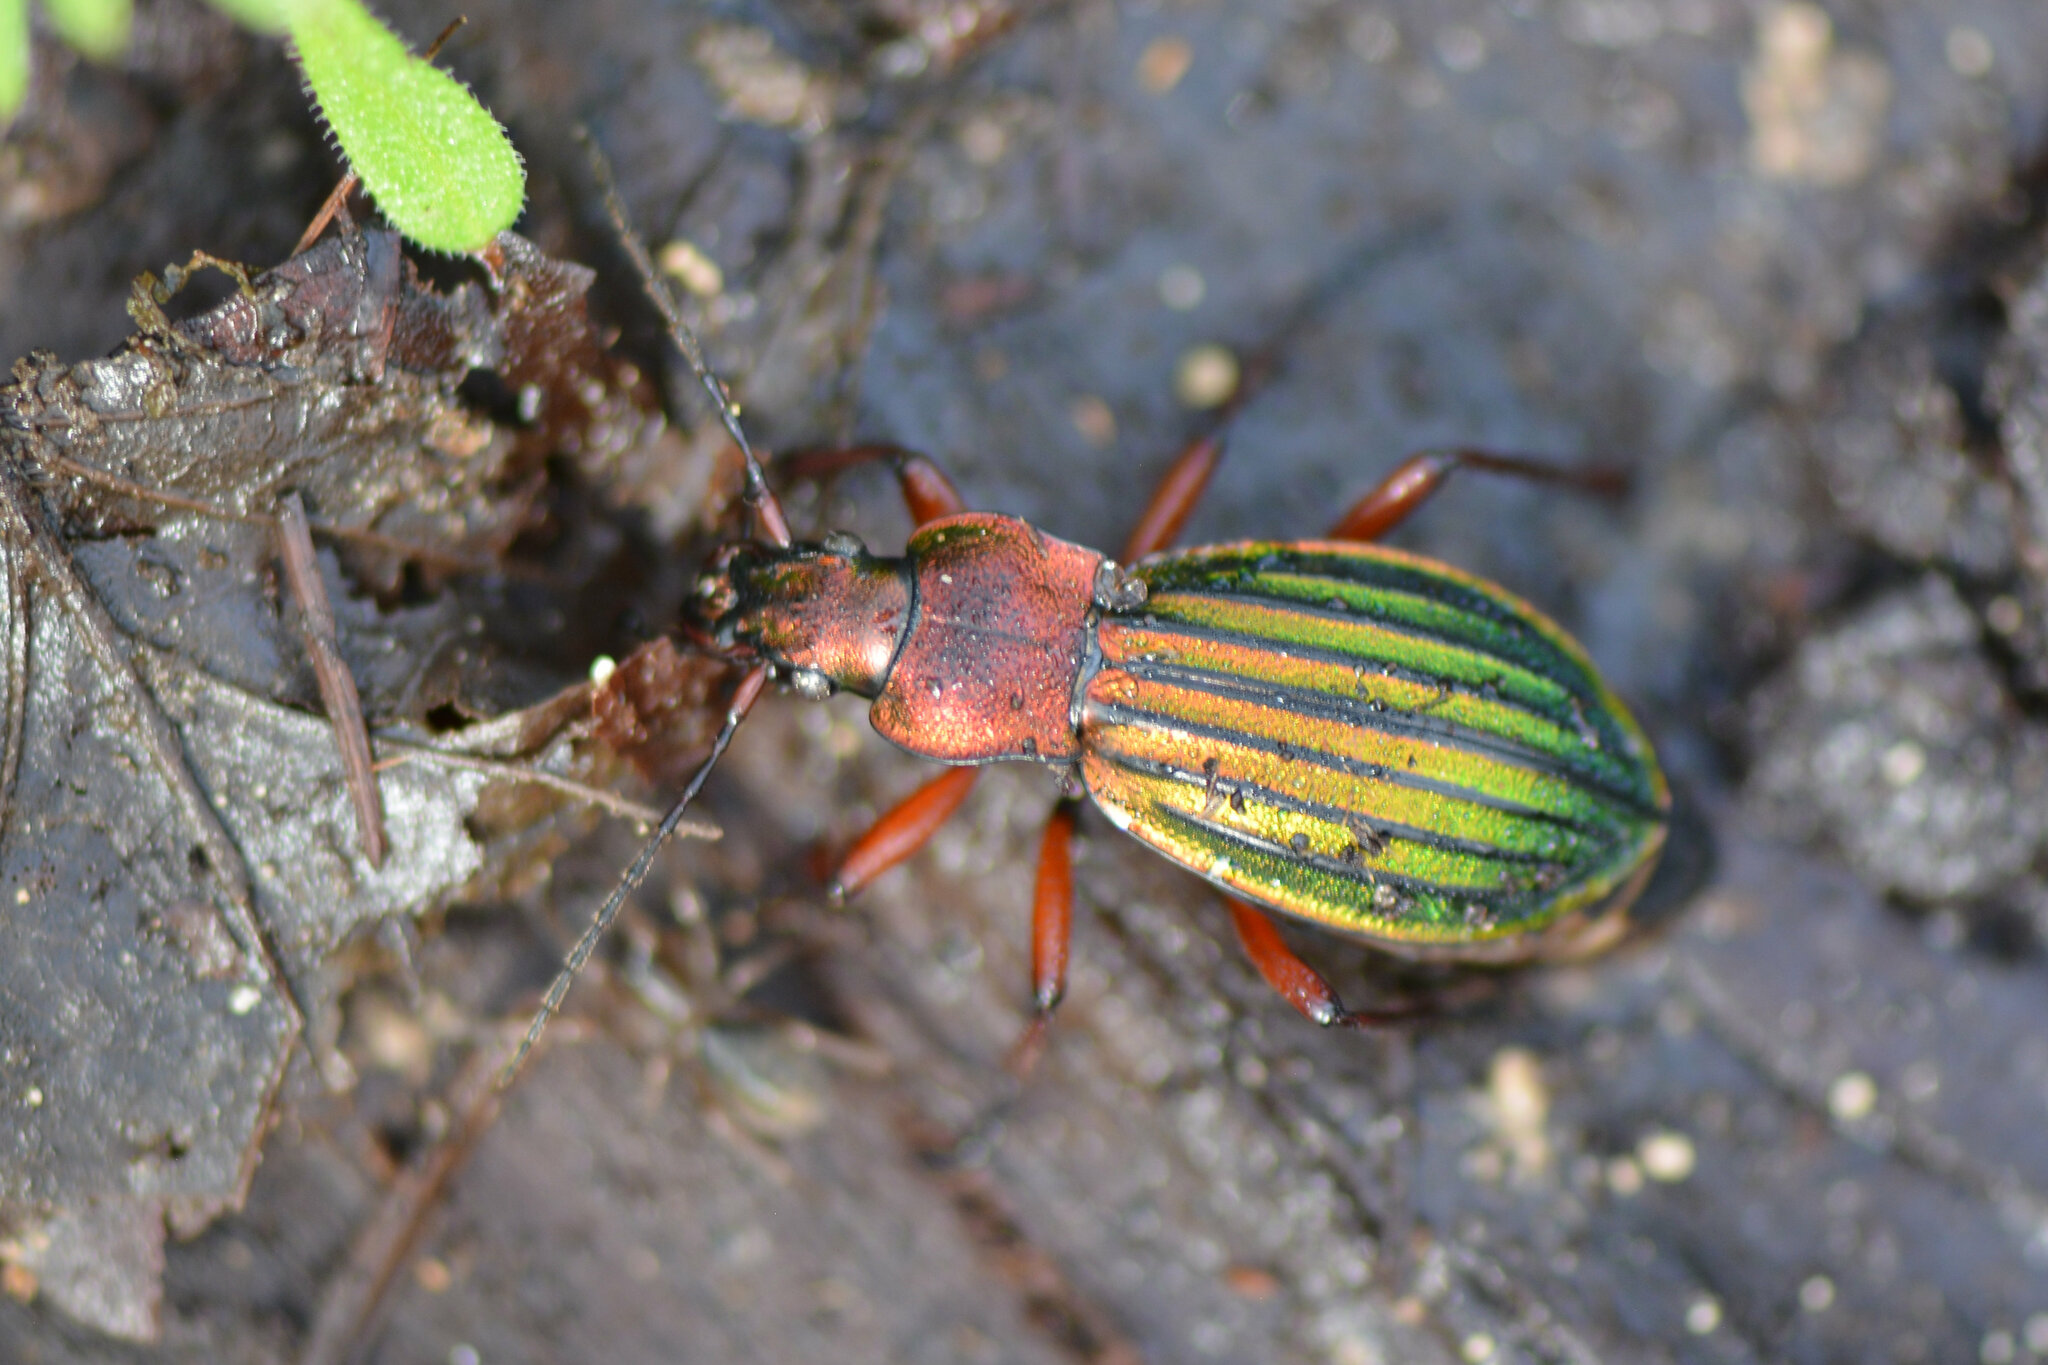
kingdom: Animalia
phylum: Arthropoda
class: Insecta
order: Coleoptera
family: Carabidae
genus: Carabus
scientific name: Carabus auronitens
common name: Carabus auronitens
